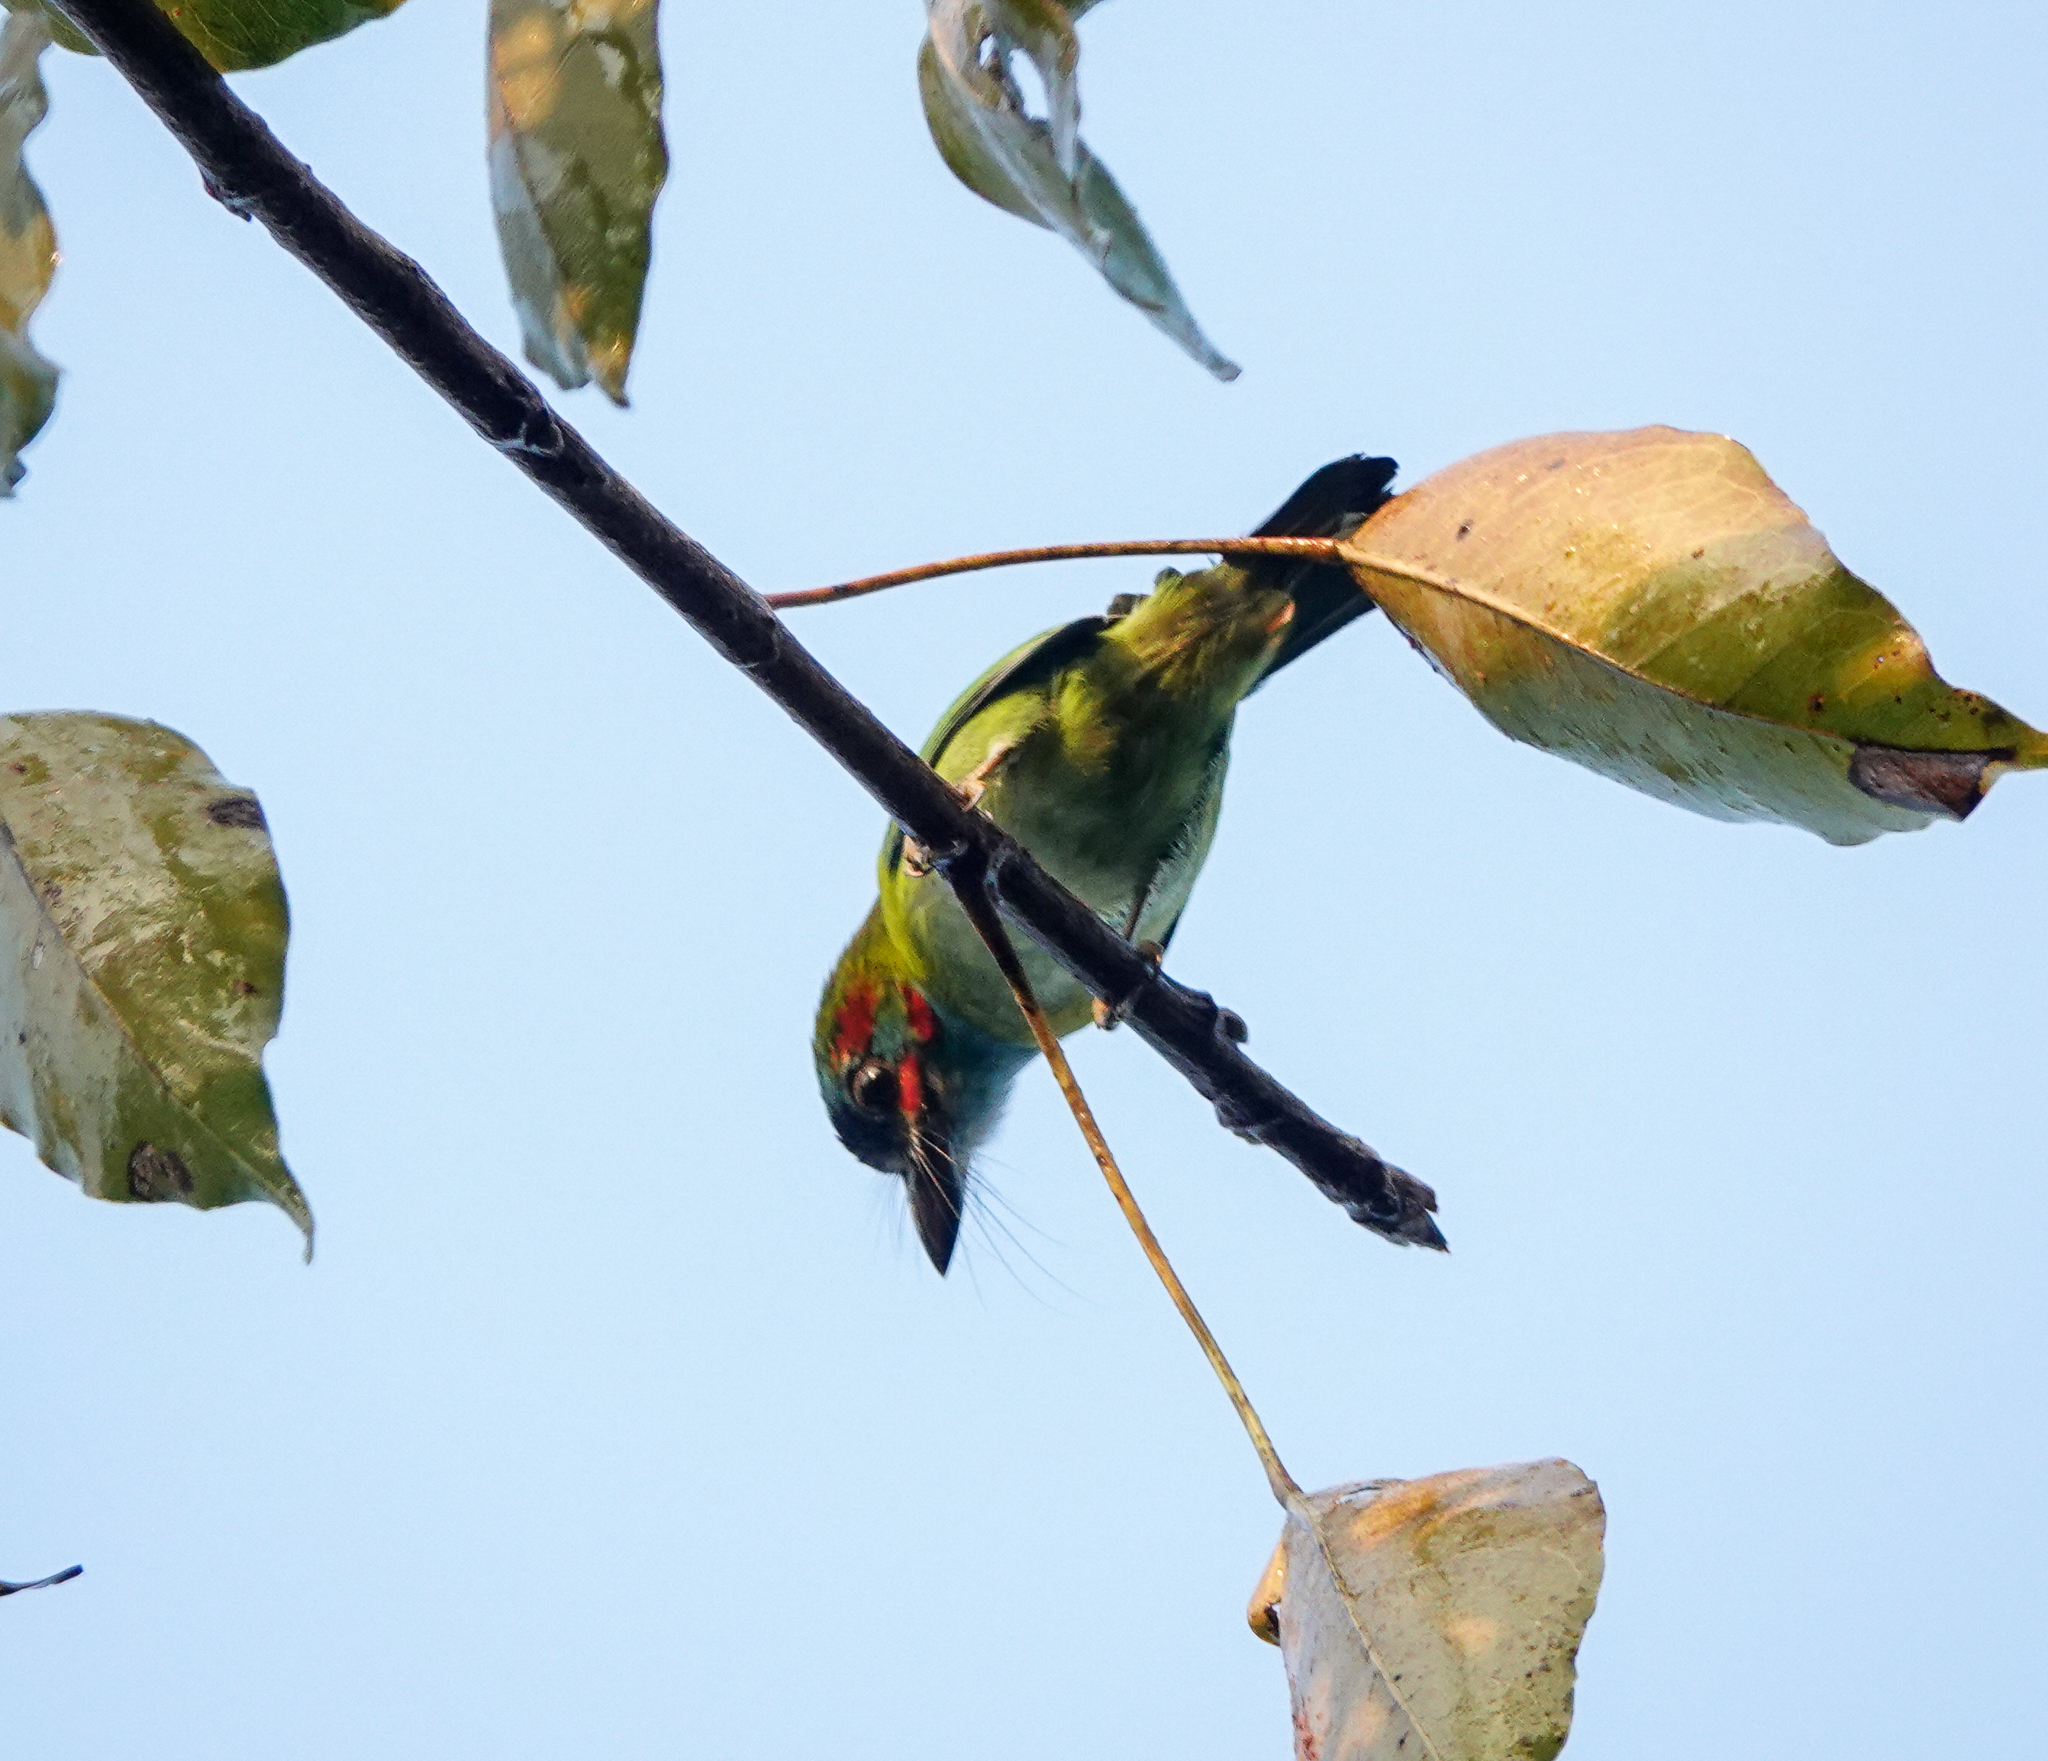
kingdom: Animalia
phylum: Chordata
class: Aves
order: Piciformes
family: Megalaimidae
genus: Psilopogon
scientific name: Psilopogon duvaucelii
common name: Blue-eared barbet
